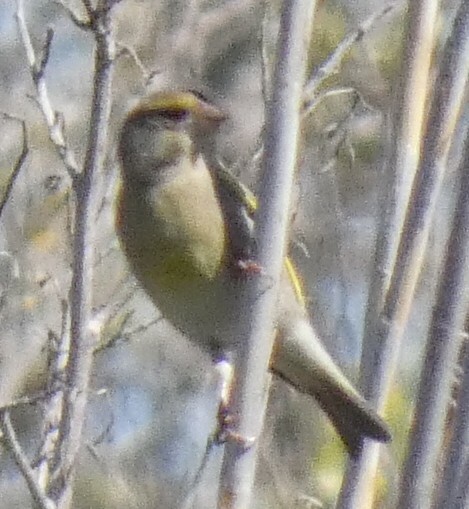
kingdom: Plantae
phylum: Tracheophyta
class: Liliopsida
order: Poales
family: Poaceae
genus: Chloris
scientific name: Chloris chloris
